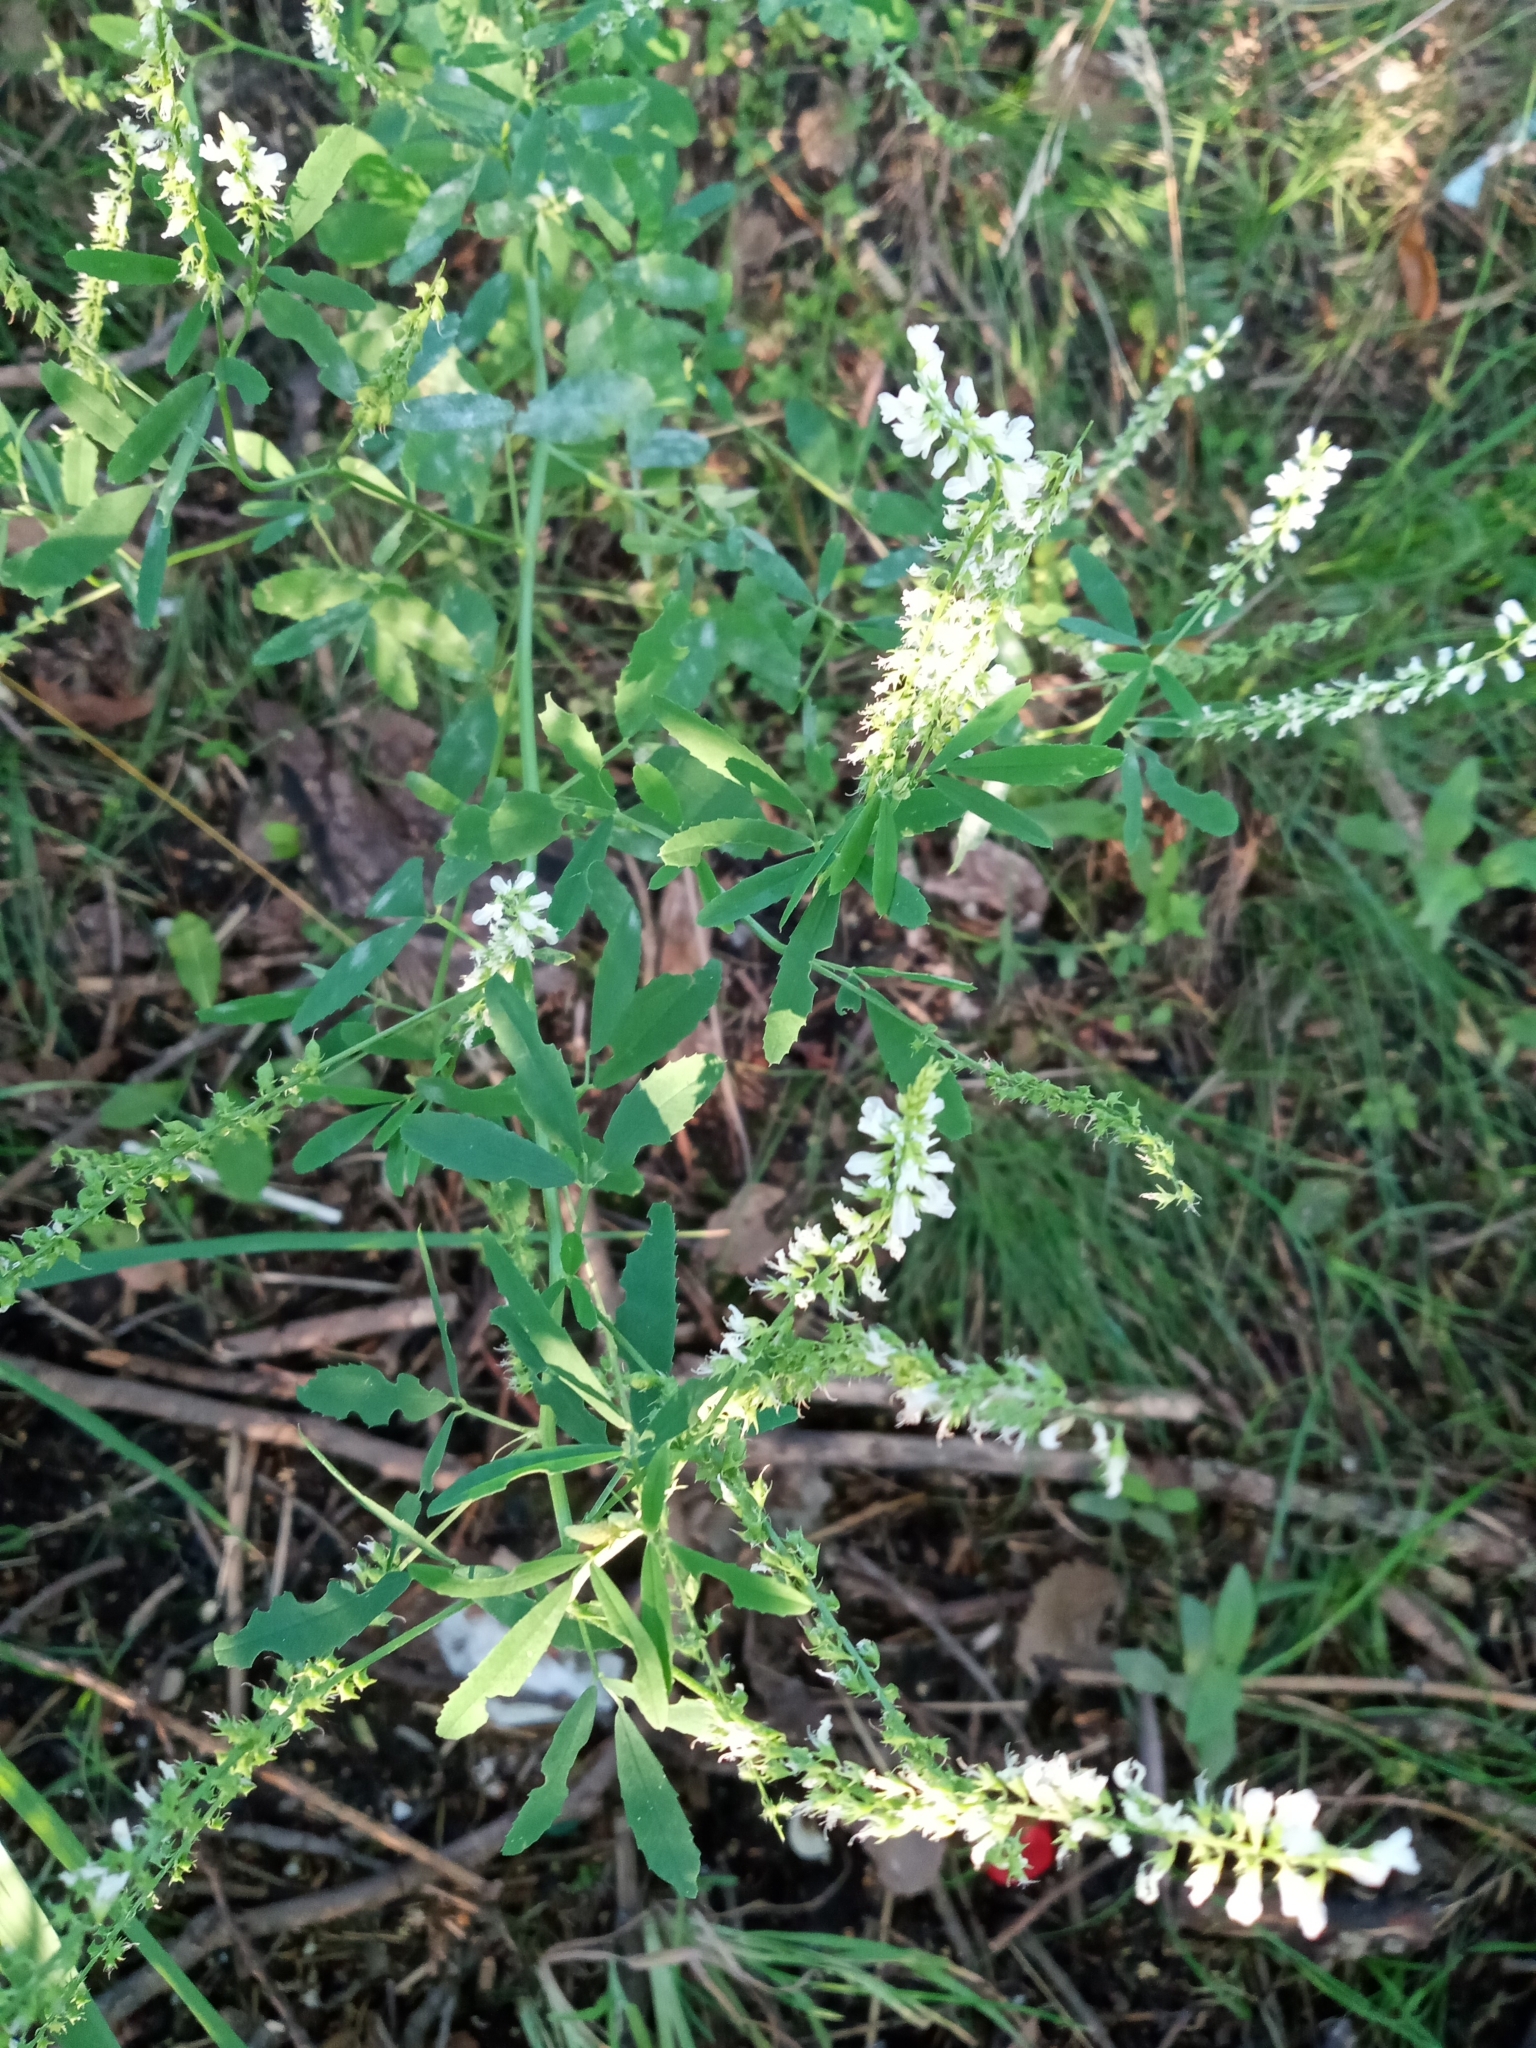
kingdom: Plantae
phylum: Tracheophyta
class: Magnoliopsida
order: Fabales
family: Fabaceae
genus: Melilotus
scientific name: Melilotus albus
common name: White melilot
